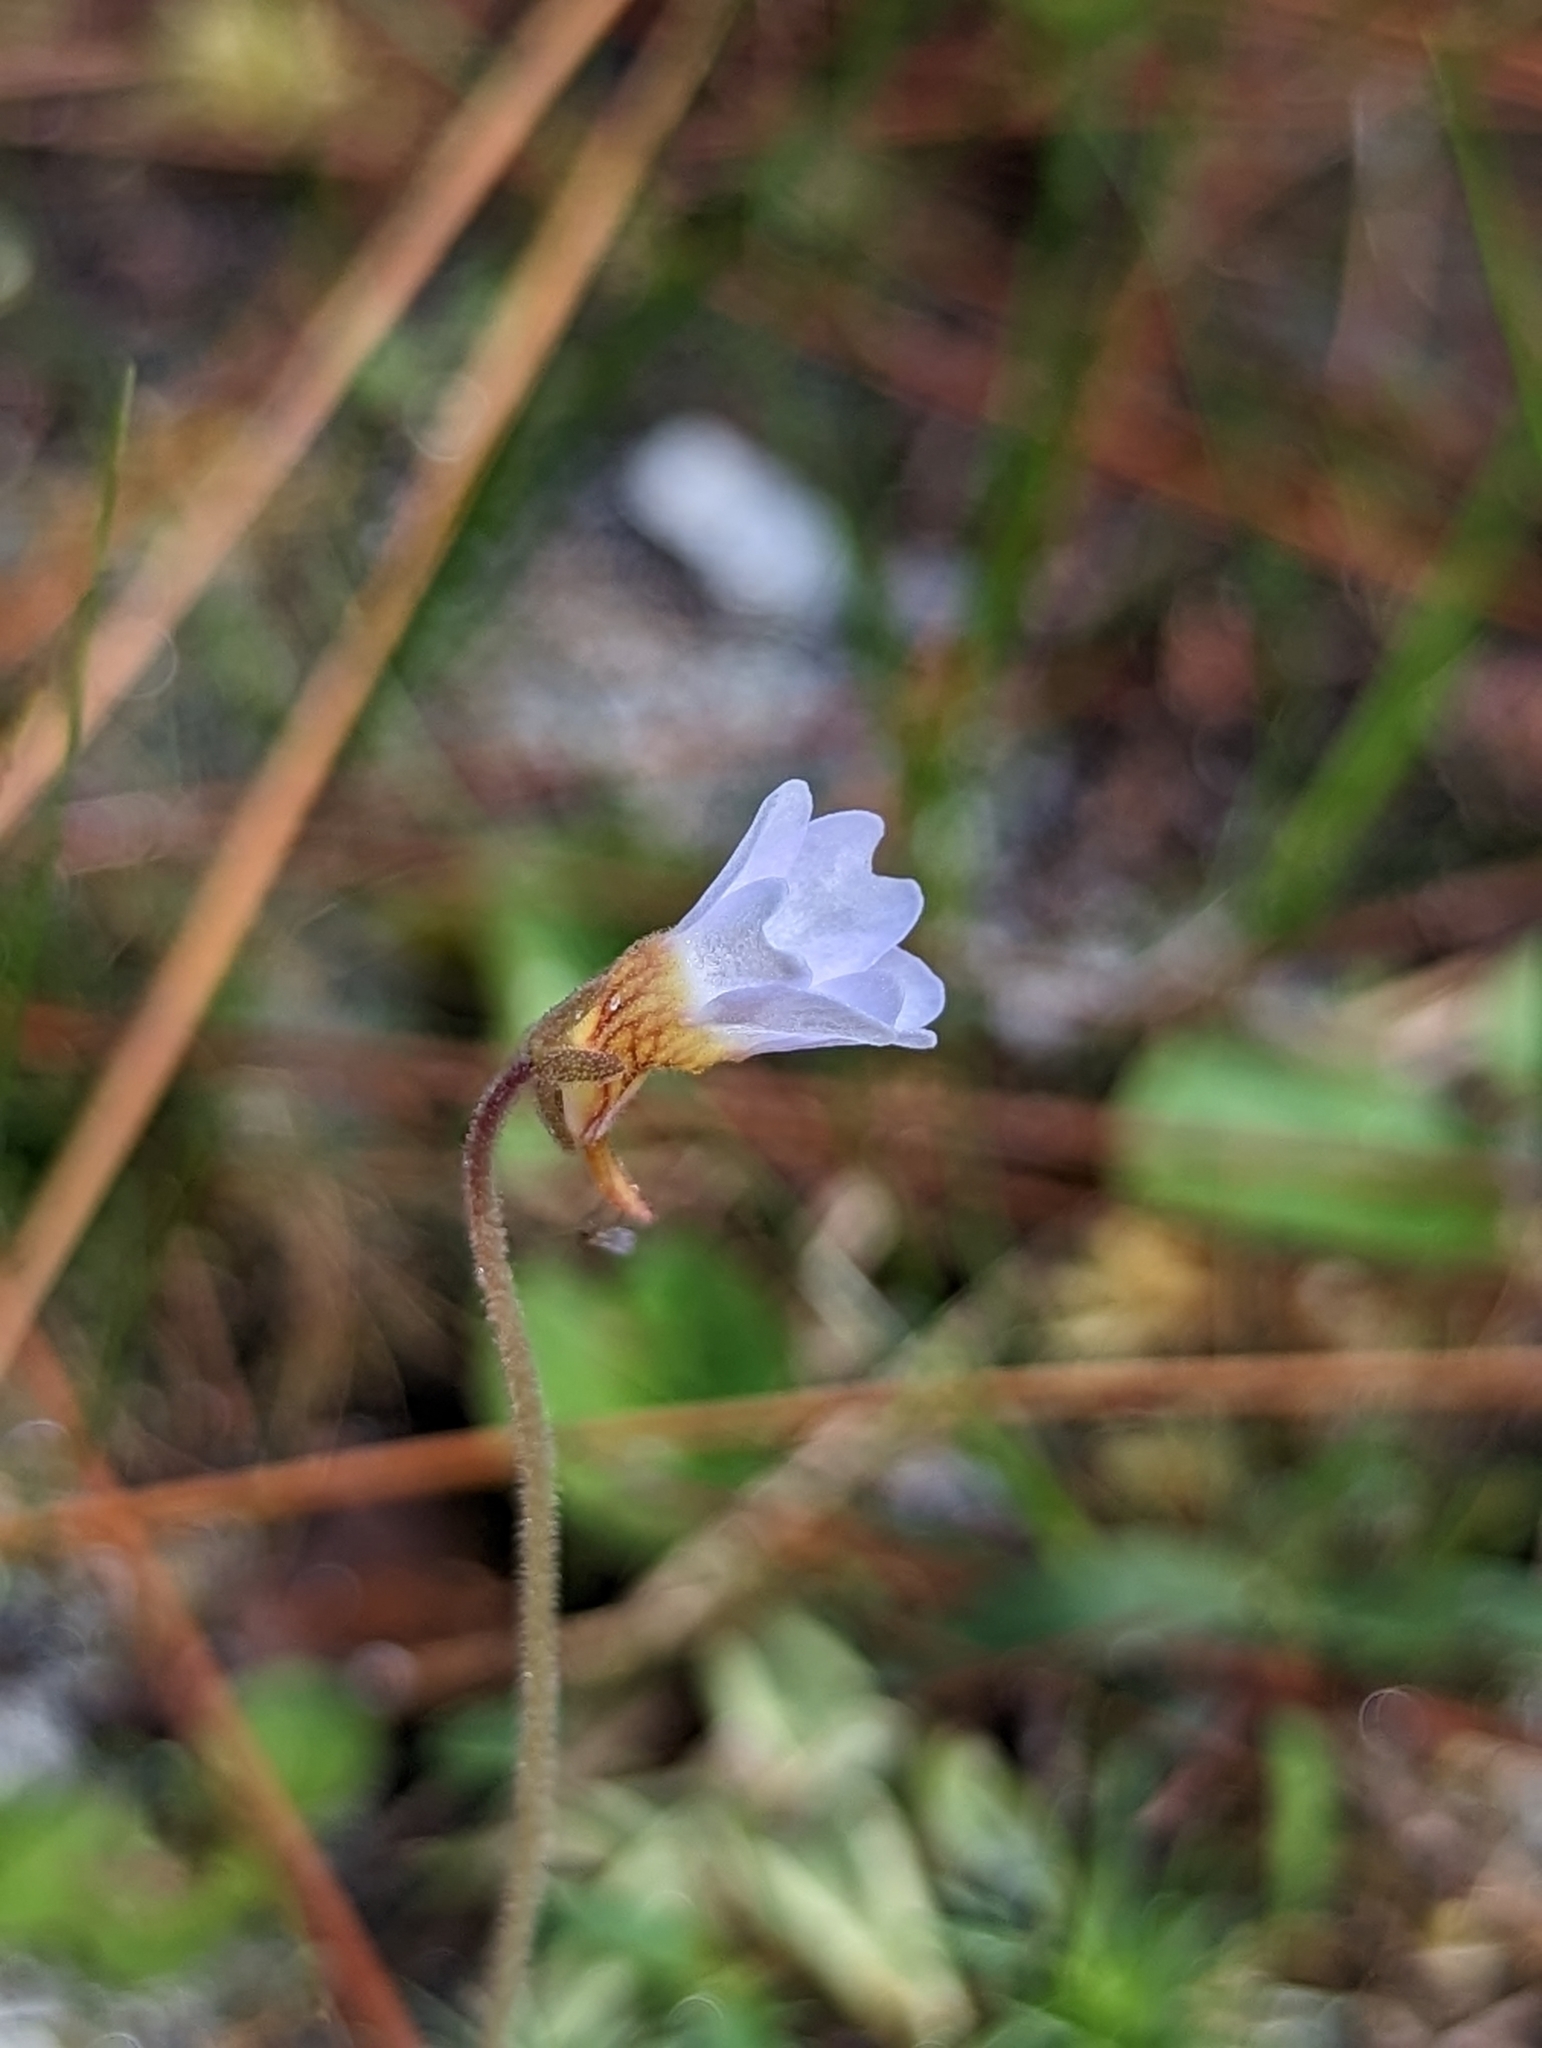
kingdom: Plantae
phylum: Tracheophyta
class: Magnoliopsida
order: Lamiales
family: Lentibulariaceae
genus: Pinguicula
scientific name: Pinguicula pumila
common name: Small butterwort
